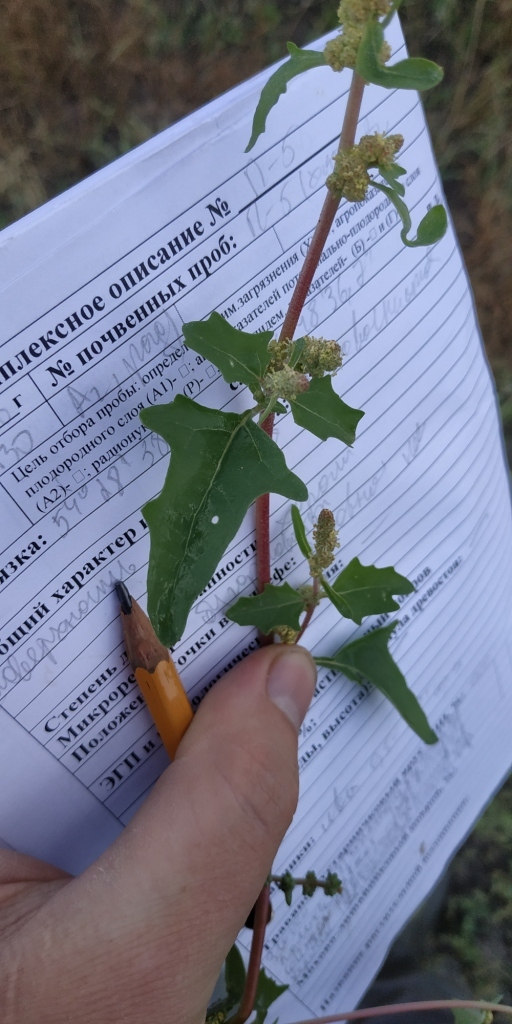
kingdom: Plantae
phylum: Tracheophyta
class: Magnoliopsida
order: Caryophyllales
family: Amaranthaceae
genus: Atriplex
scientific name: Atriplex tatarica
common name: Tatarian orache
